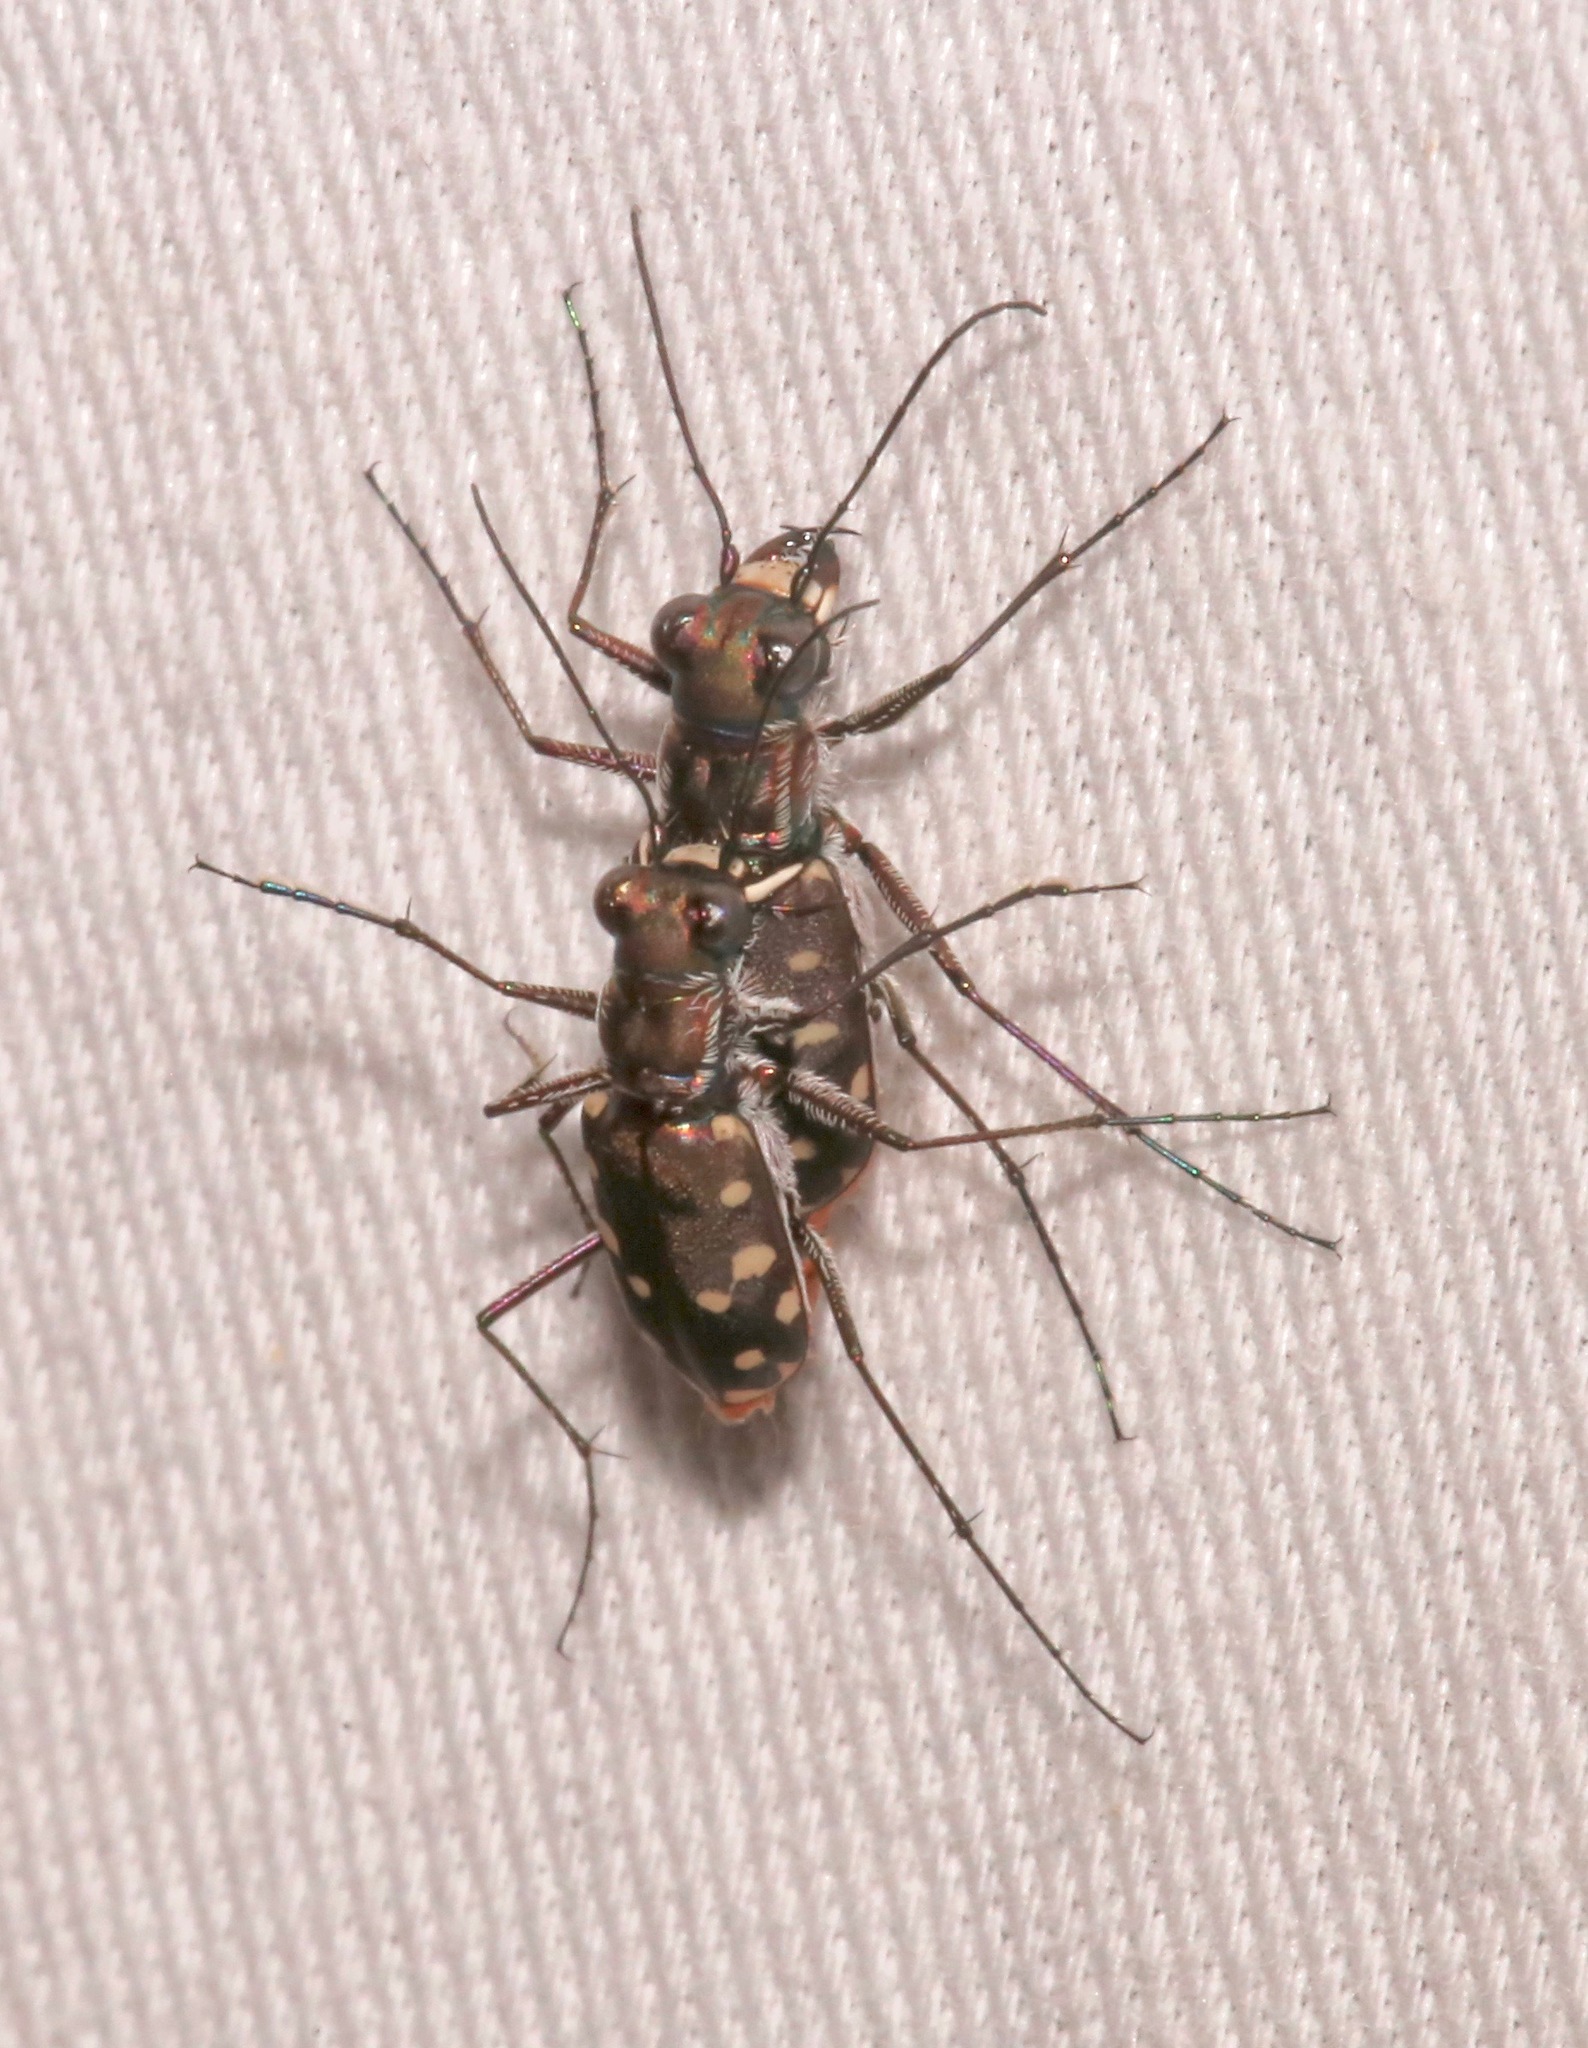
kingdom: Animalia
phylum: Arthropoda
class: Insecta
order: Coleoptera
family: Carabidae
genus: Cicindela
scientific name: Cicindela sedecimpunctata
